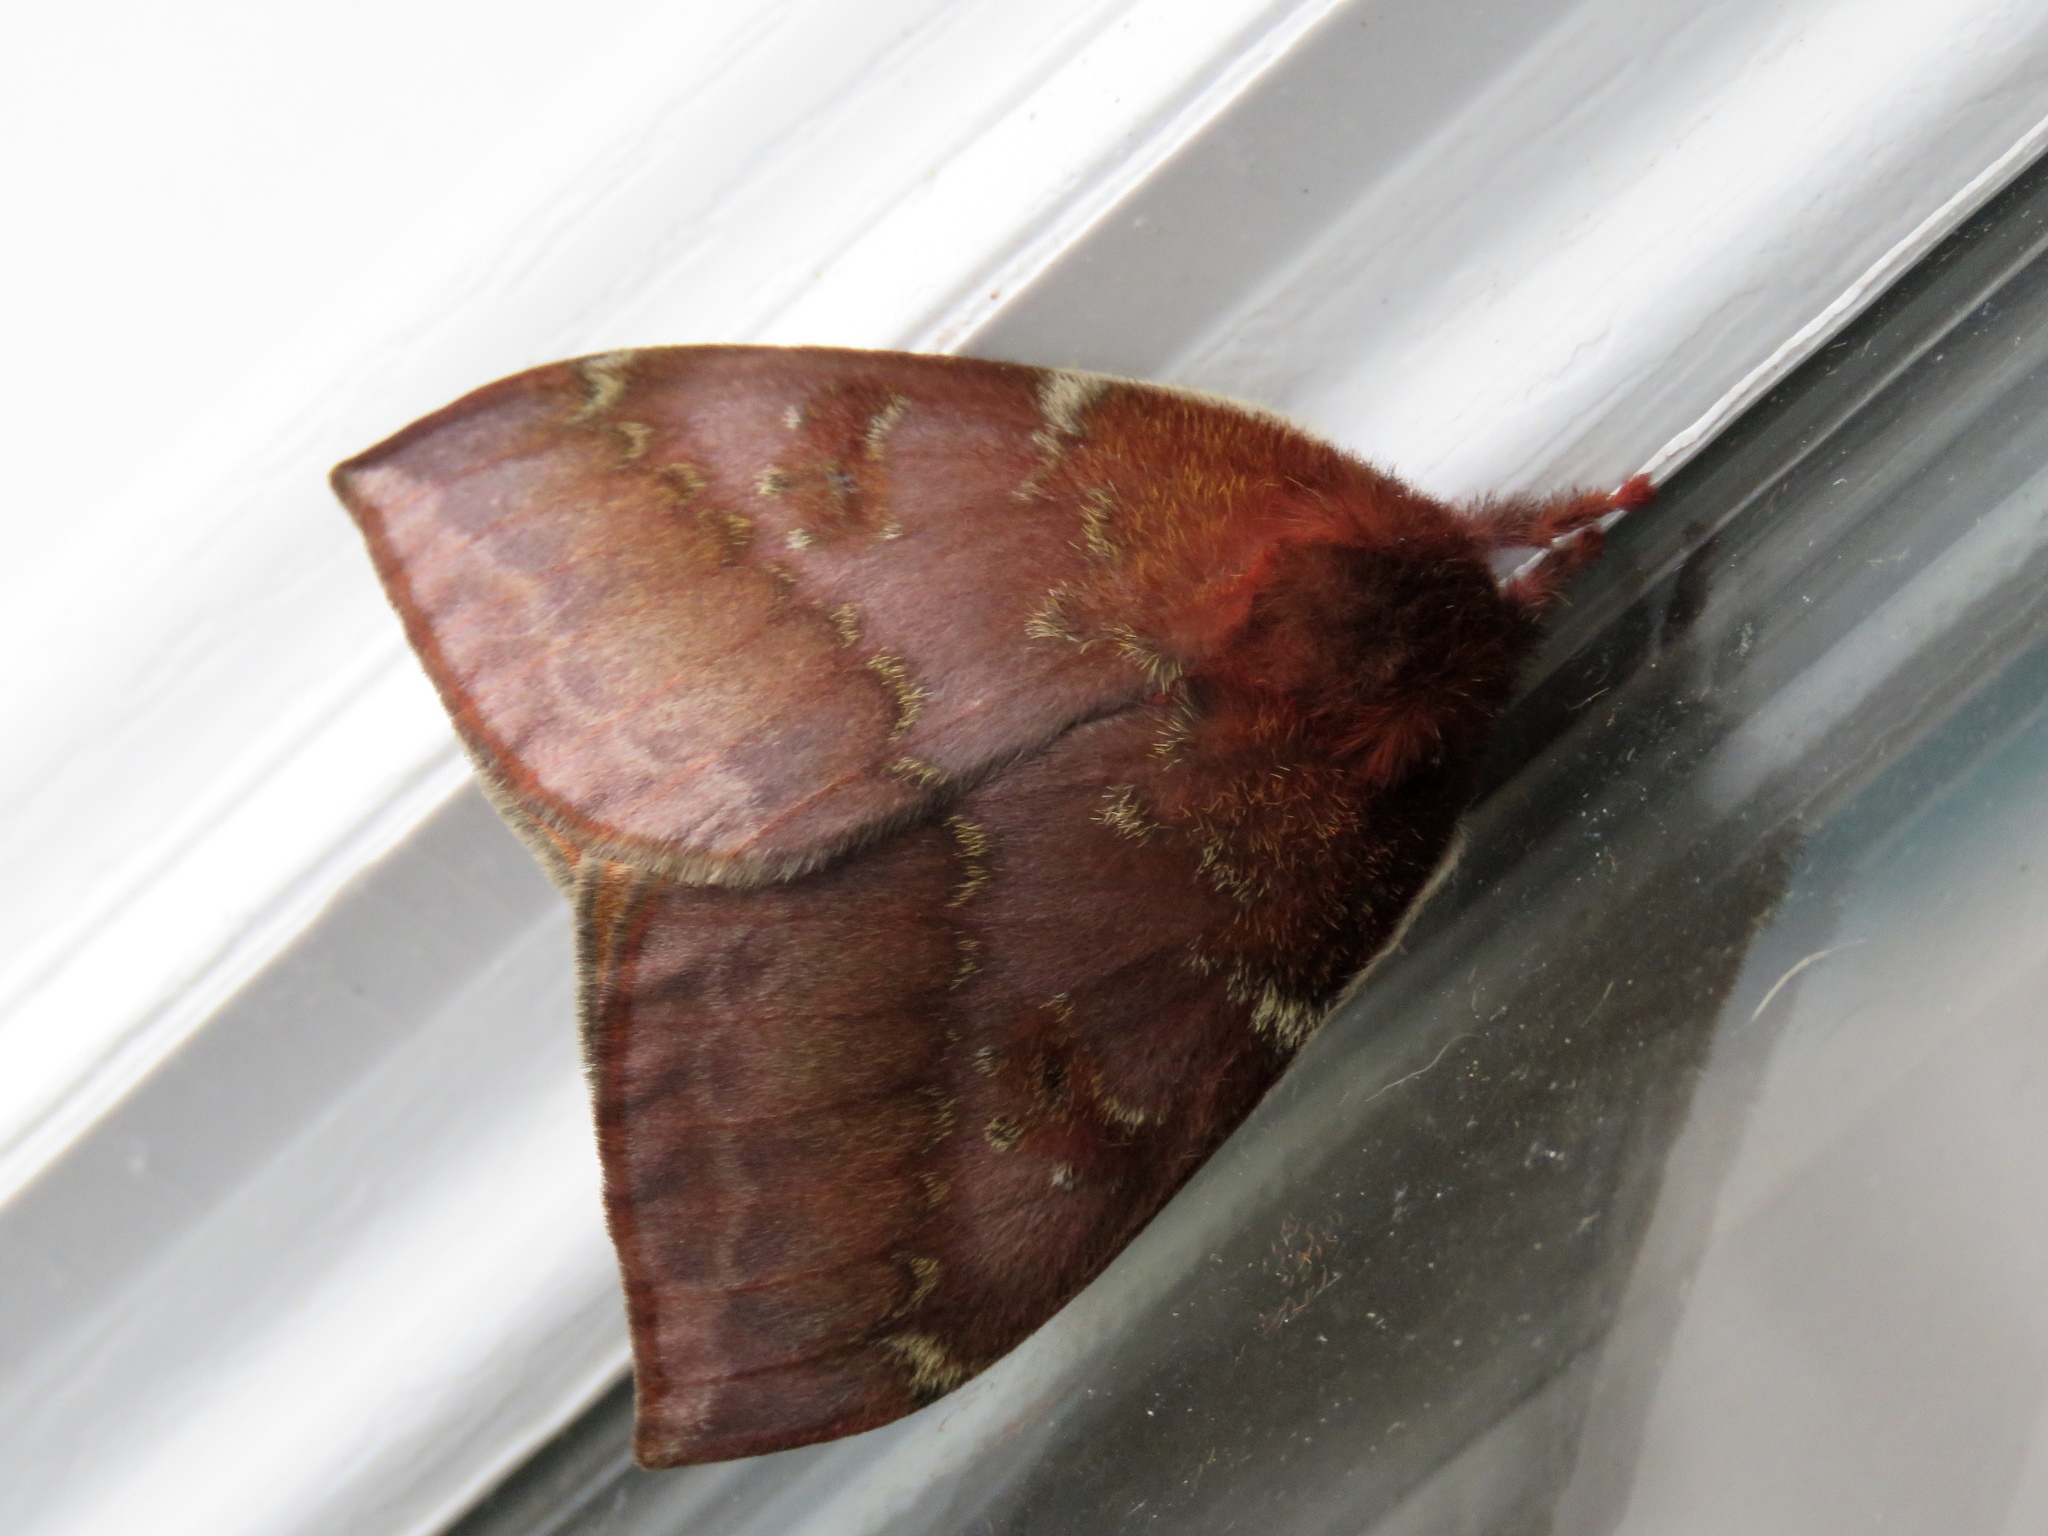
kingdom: Animalia
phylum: Arthropoda
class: Insecta
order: Lepidoptera
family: Saturniidae
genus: Automeris
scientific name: Automeris io
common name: Io moth
